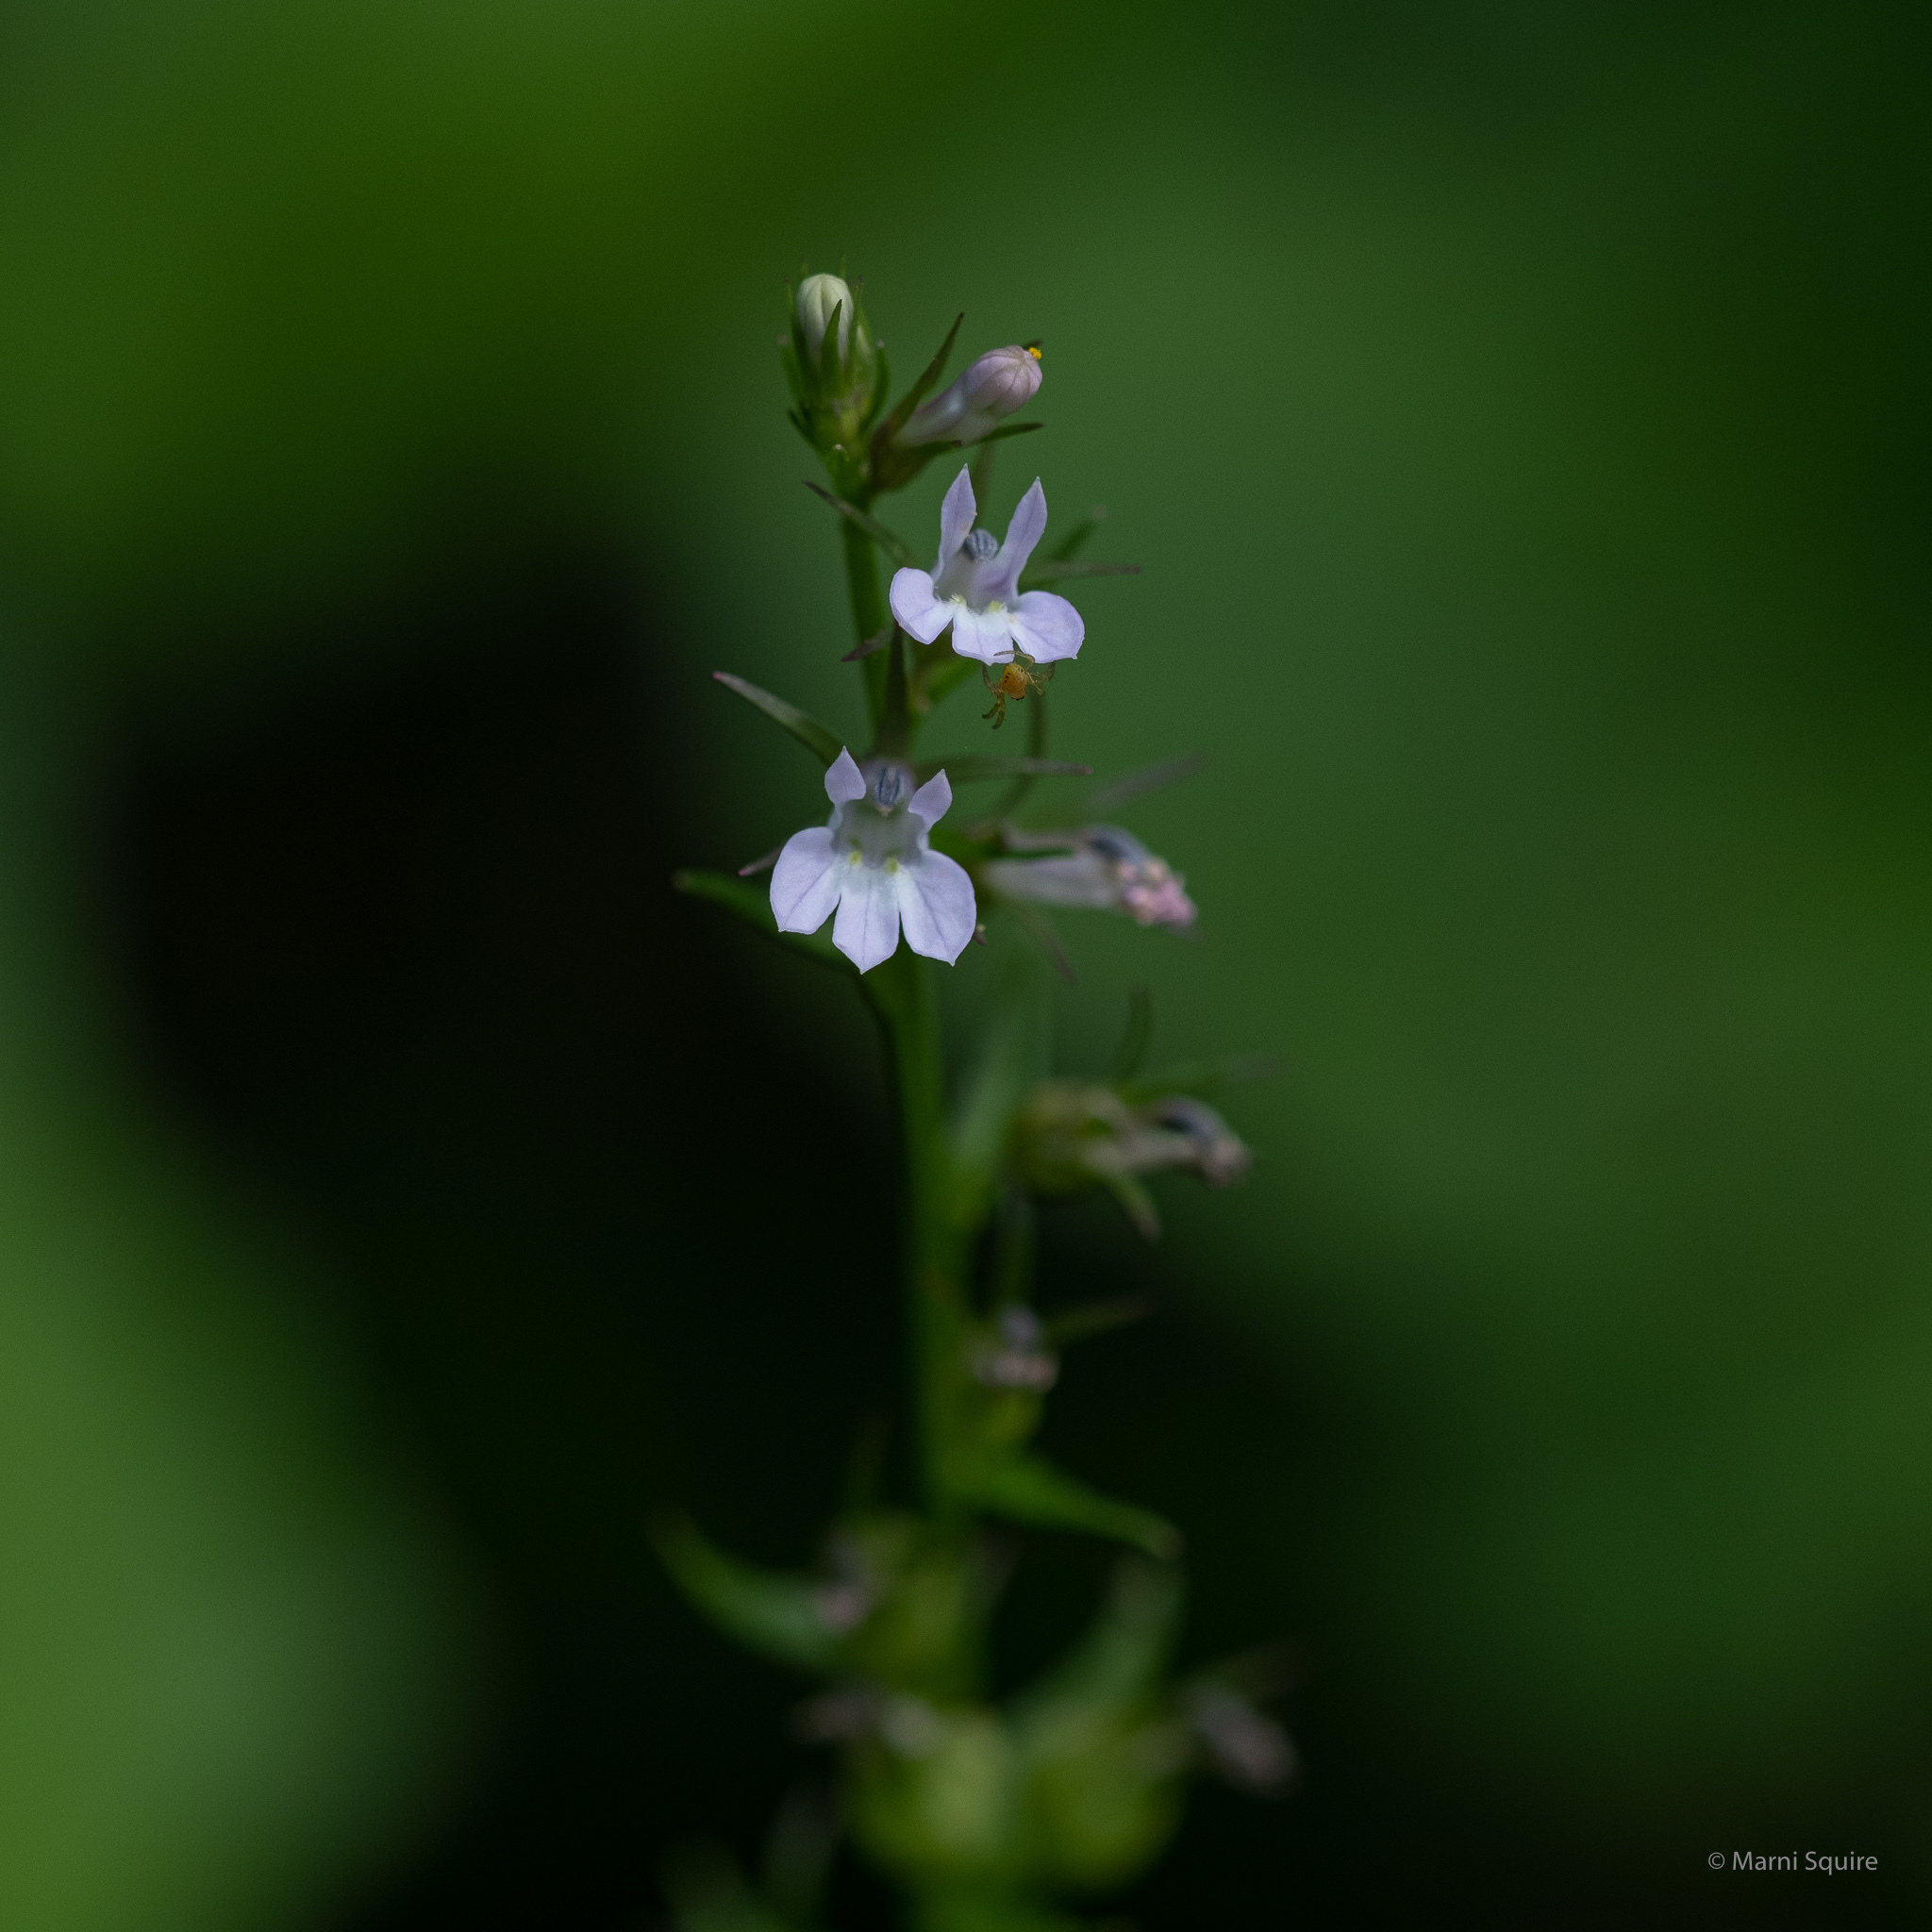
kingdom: Plantae
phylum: Tracheophyta
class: Magnoliopsida
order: Asterales
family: Campanulaceae
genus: Lobelia
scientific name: Lobelia inflata
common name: Indian tobacco
